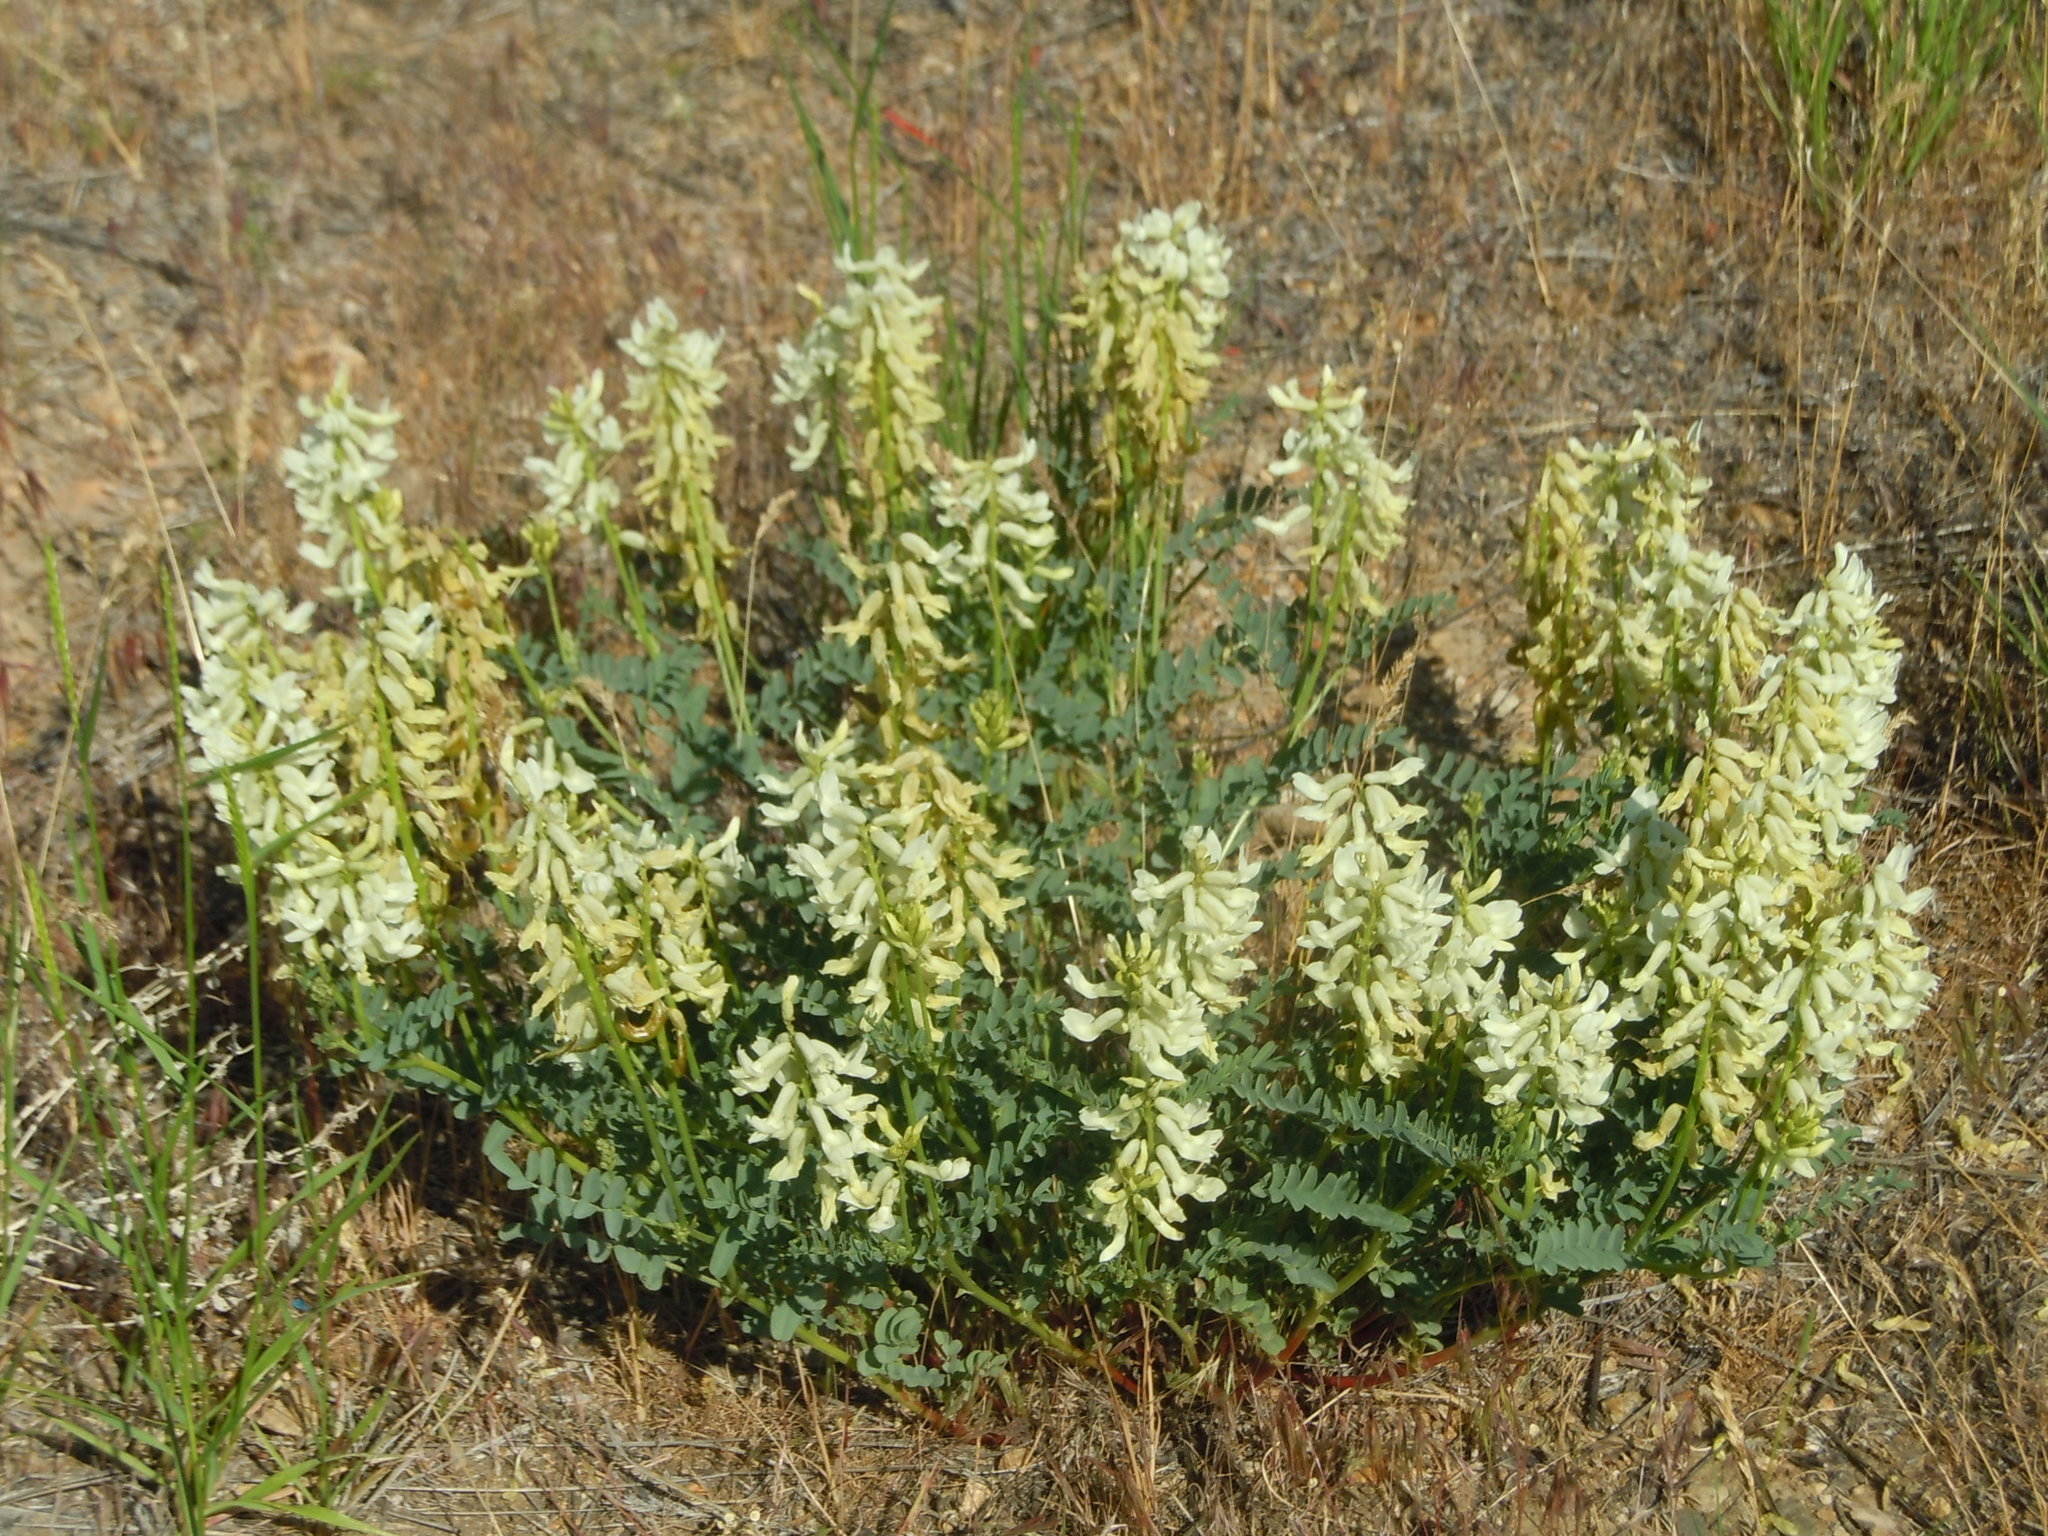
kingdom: Plantae
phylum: Tracheophyta
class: Magnoliopsida
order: Fabales
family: Fabaceae
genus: Astragalus
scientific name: Astragalus curvicarpus
